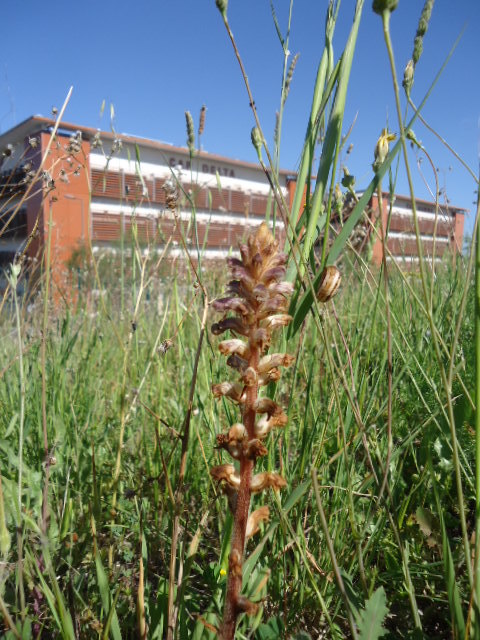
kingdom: Plantae
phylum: Tracheophyta
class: Magnoliopsida
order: Lamiales
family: Orobanchaceae
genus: Orobanche
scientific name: Orobanche minor
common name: Common broomrape
